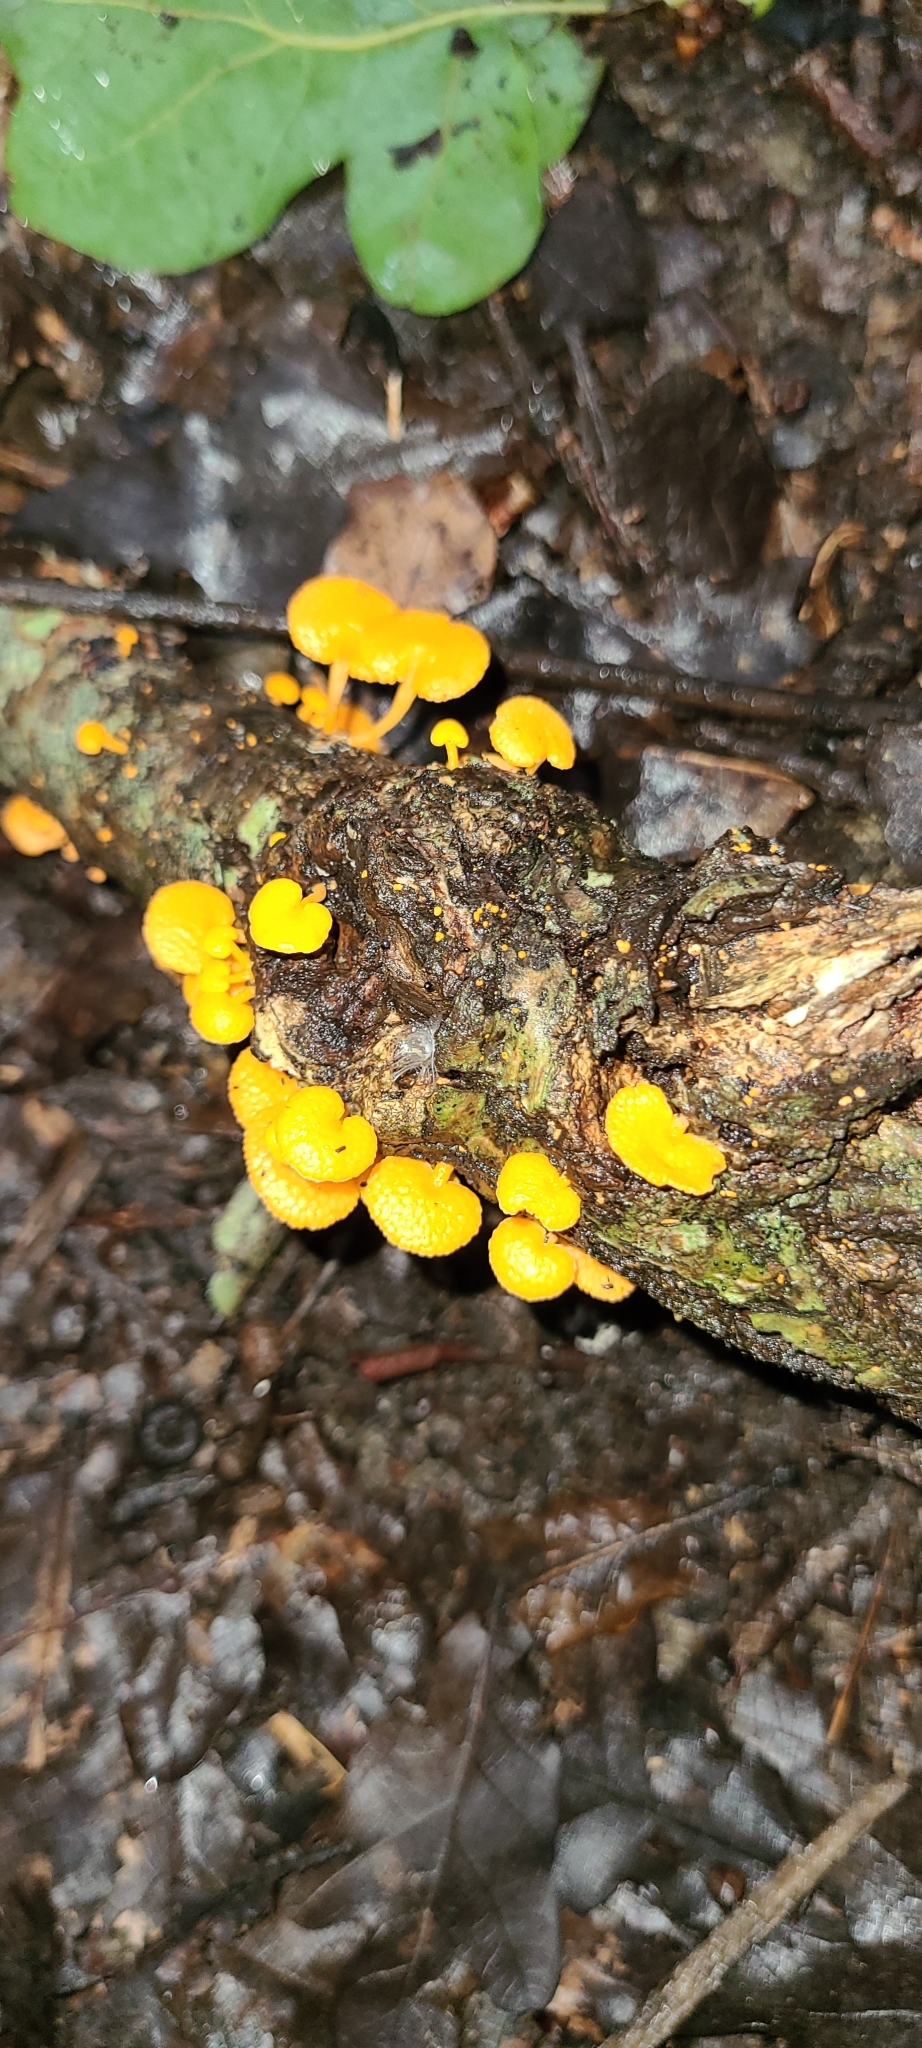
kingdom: Fungi
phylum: Basidiomycota
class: Agaricomycetes
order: Agaricales
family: Mycenaceae
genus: Favolaschia
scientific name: Favolaschia claudopus
